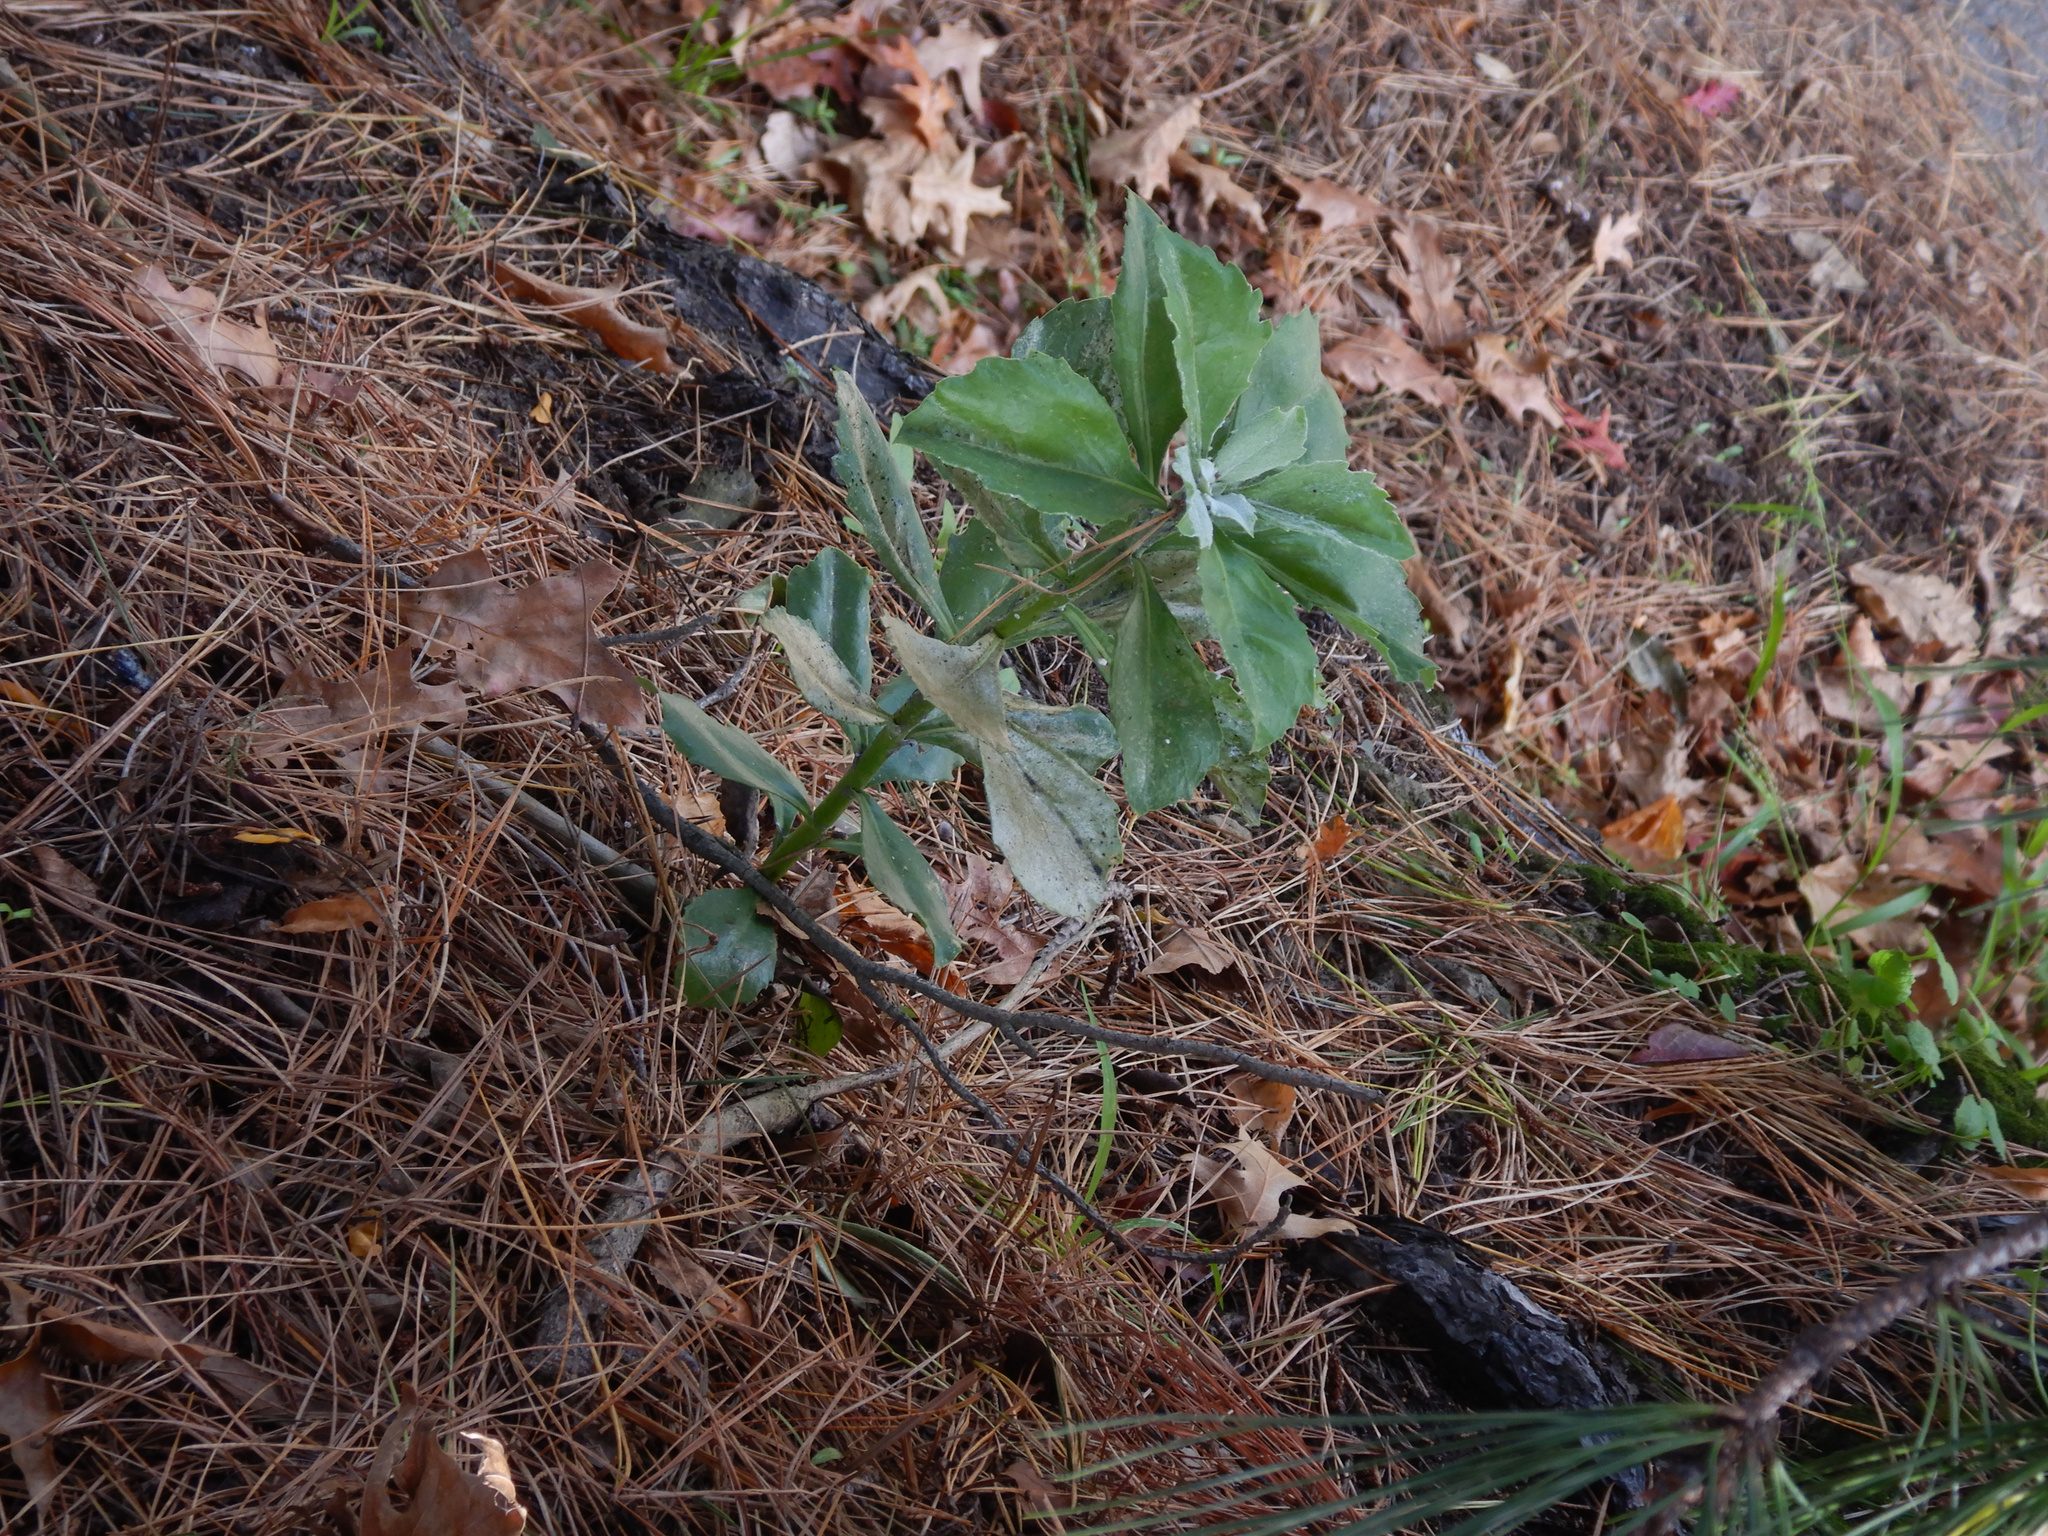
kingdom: Plantae
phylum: Tracheophyta
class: Magnoliopsida
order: Asterales
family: Asteraceae
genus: Osteospermum
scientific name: Osteospermum moniliferum
